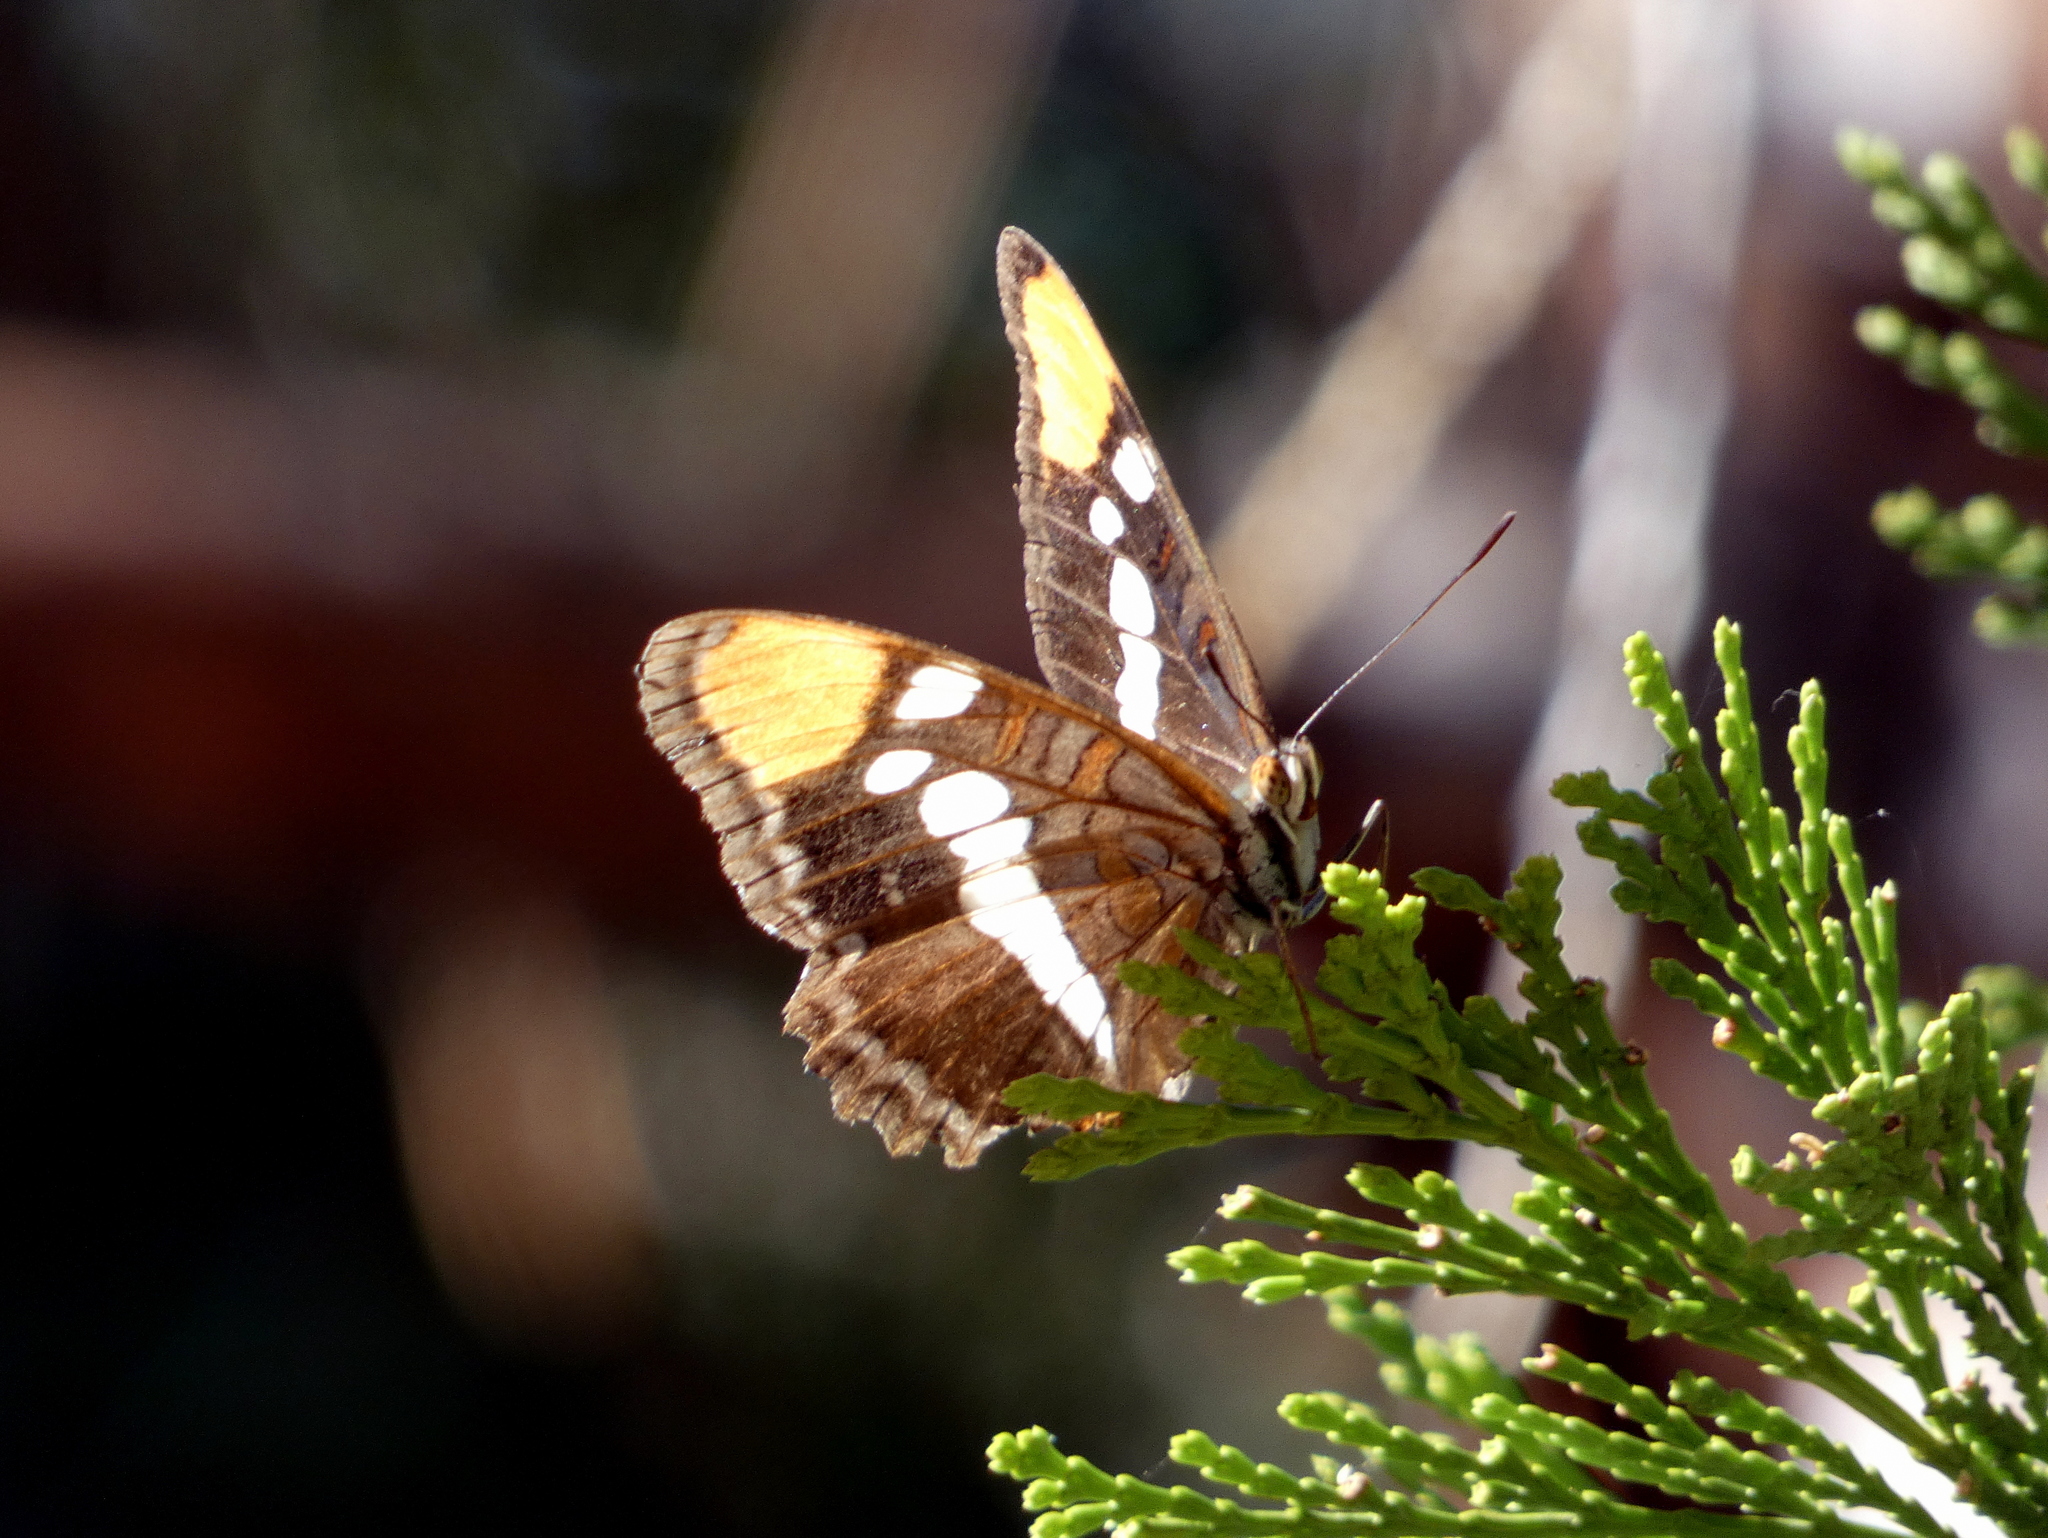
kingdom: Animalia
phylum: Arthropoda
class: Insecta
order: Lepidoptera
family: Nymphalidae
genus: Limenitis
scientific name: Limenitis bredowii
